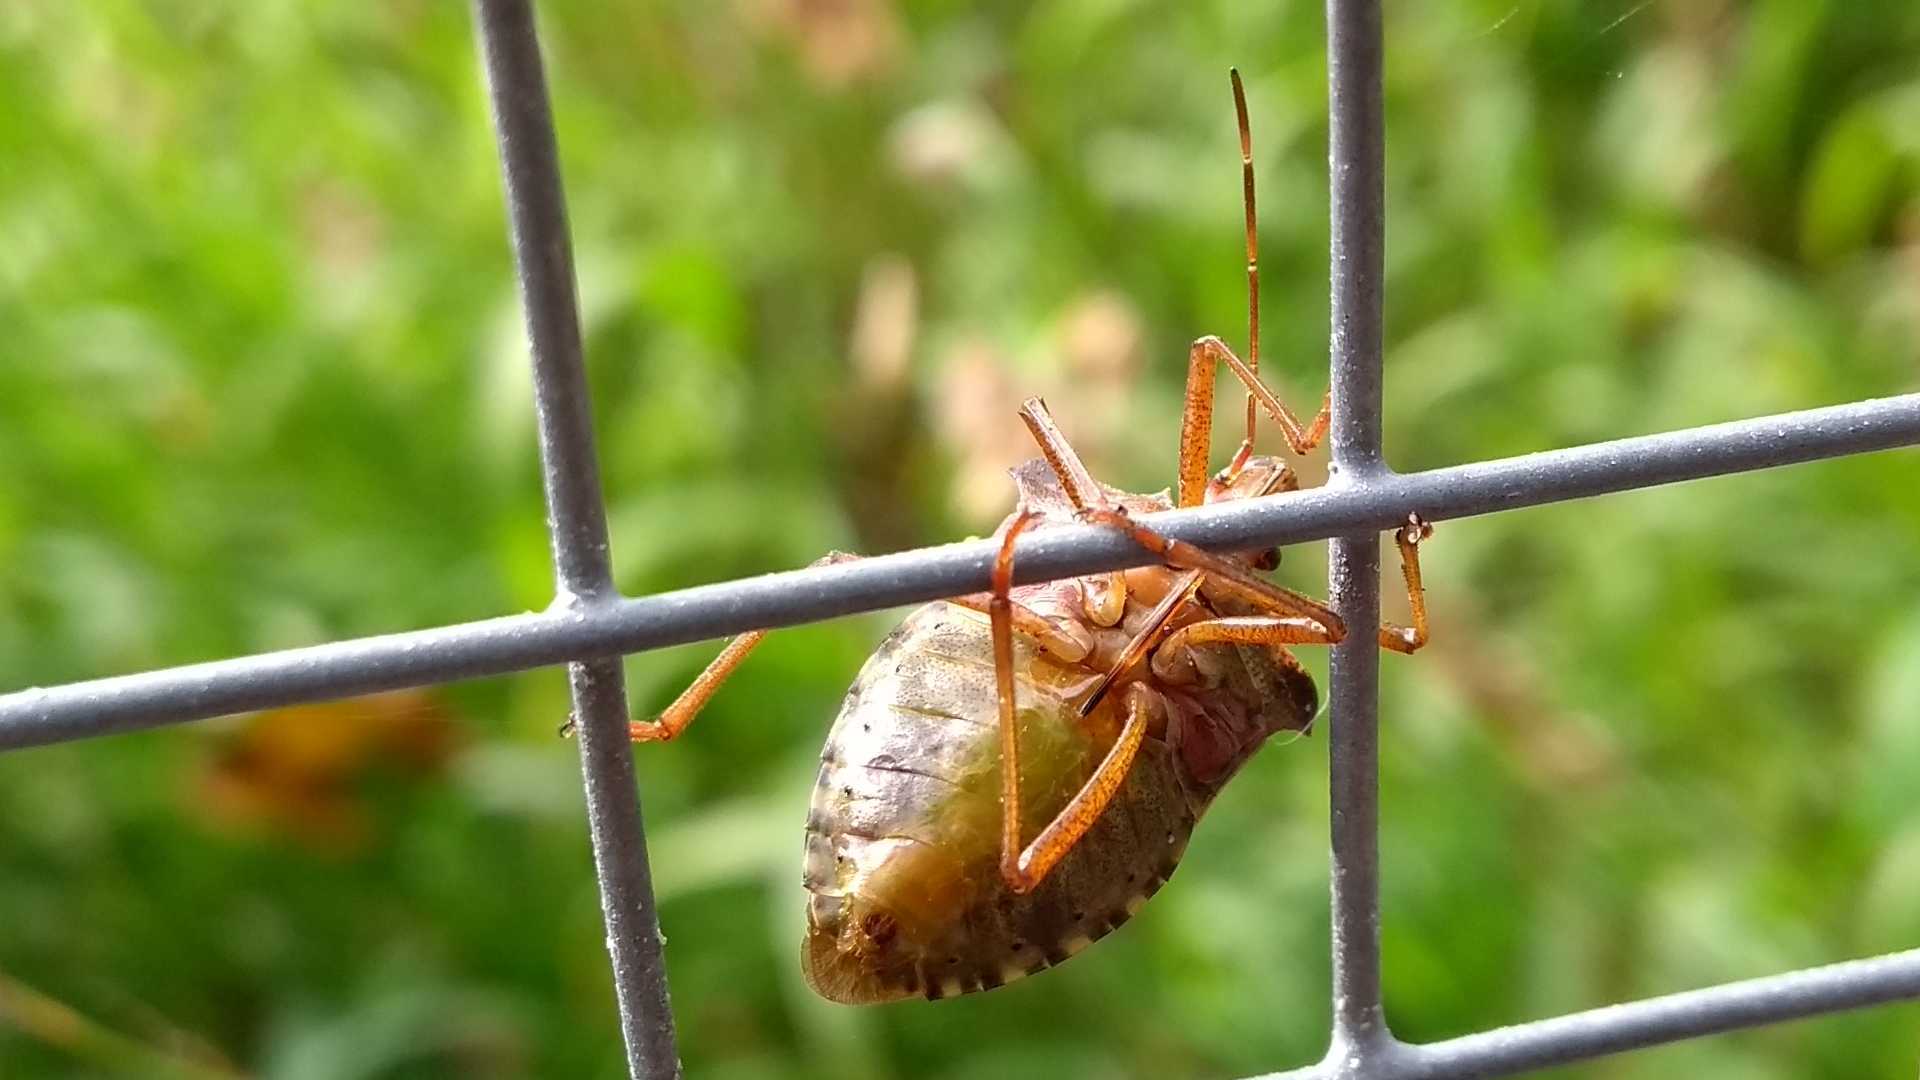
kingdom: Animalia
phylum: Arthropoda
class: Insecta
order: Hemiptera
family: Pentatomidae
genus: Pentatoma
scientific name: Pentatoma rufipes
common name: Forest bug
